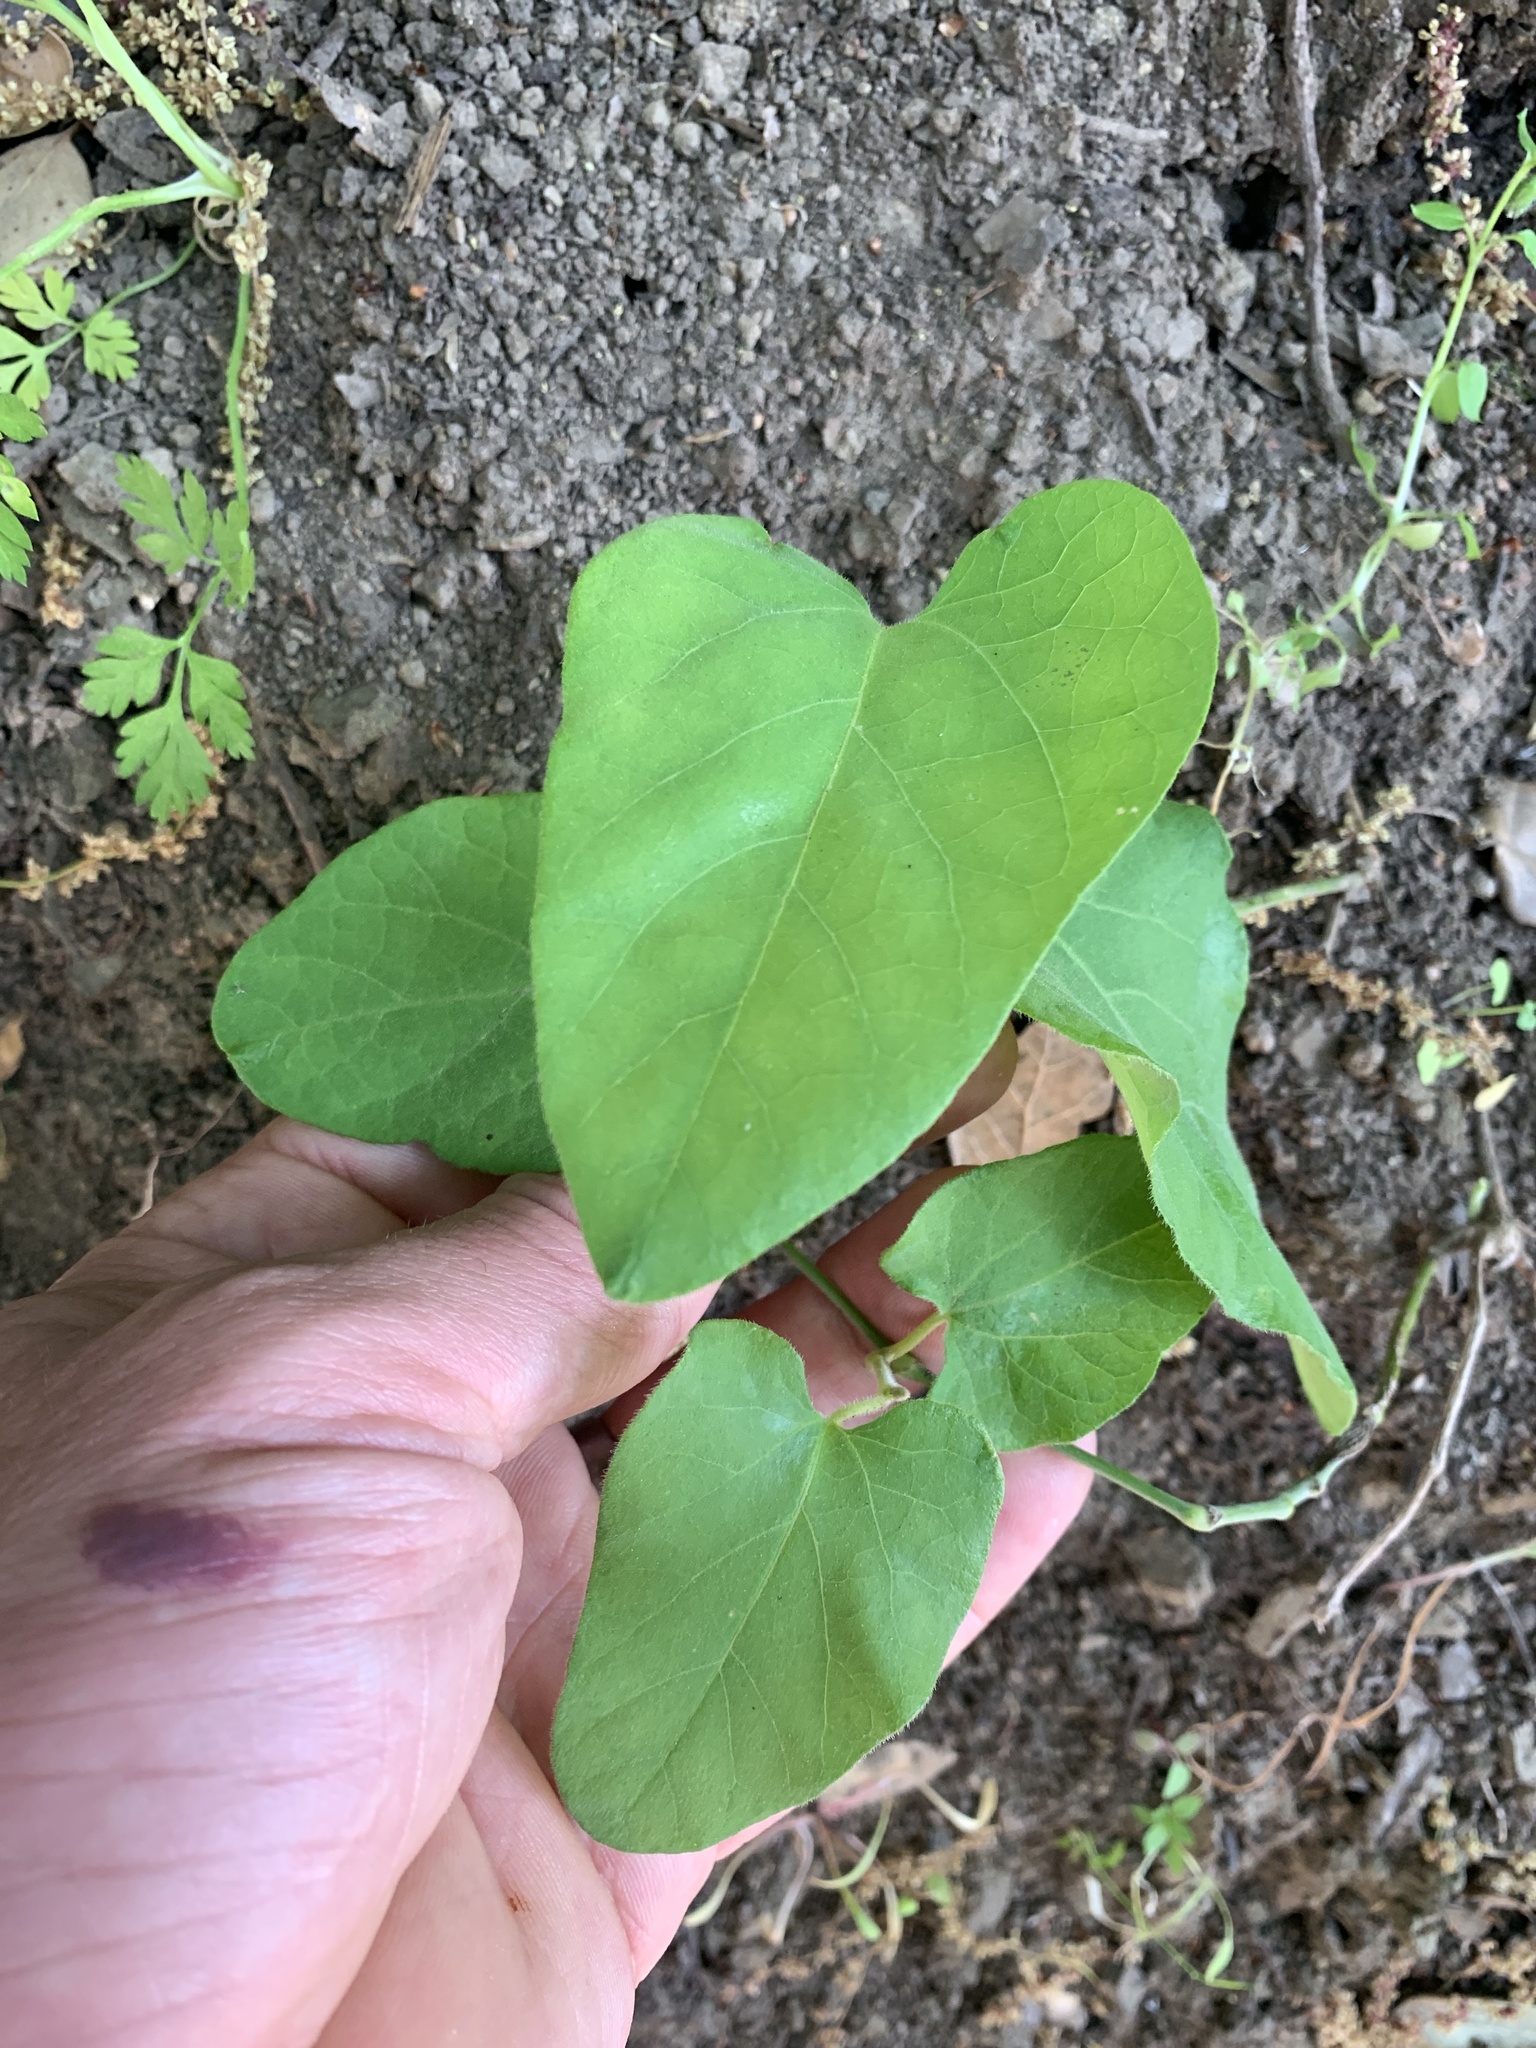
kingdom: Plantae
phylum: Tracheophyta
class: Magnoliopsida
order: Piperales
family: Aristolochiaceae
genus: Isotrema
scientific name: Isotrema californicum
